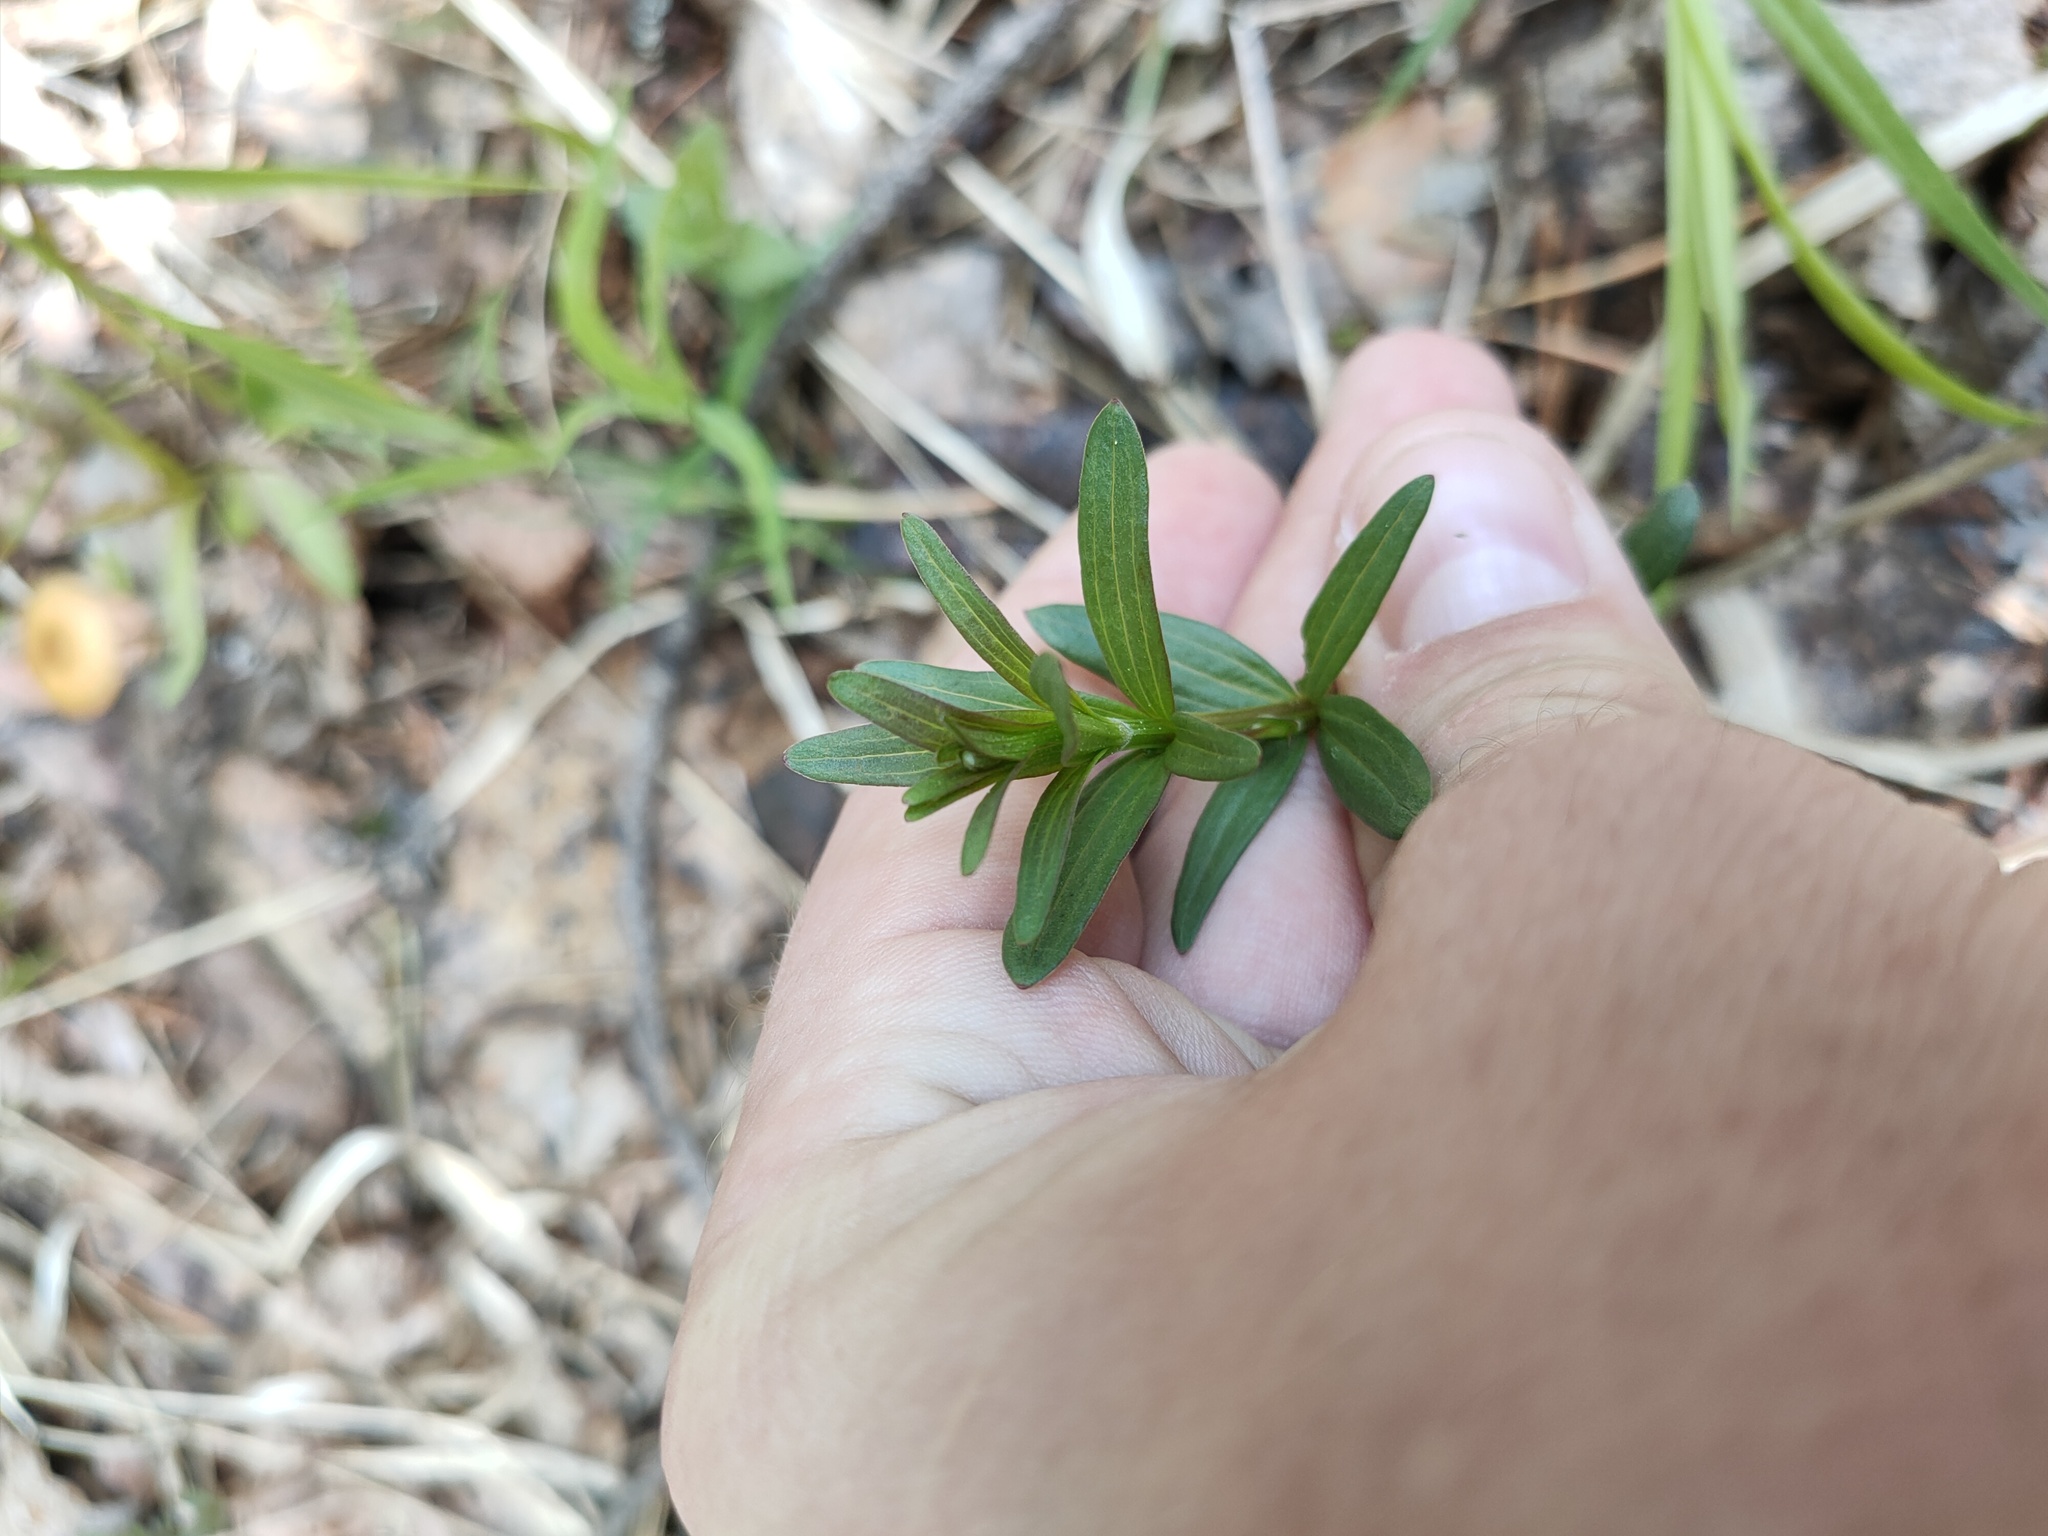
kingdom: Plantae
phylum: Tracheophyta
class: Magnoliopsida
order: Gentianales
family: Rubiaceae
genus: Galium
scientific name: Galium boreale
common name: Northern bedstraw
